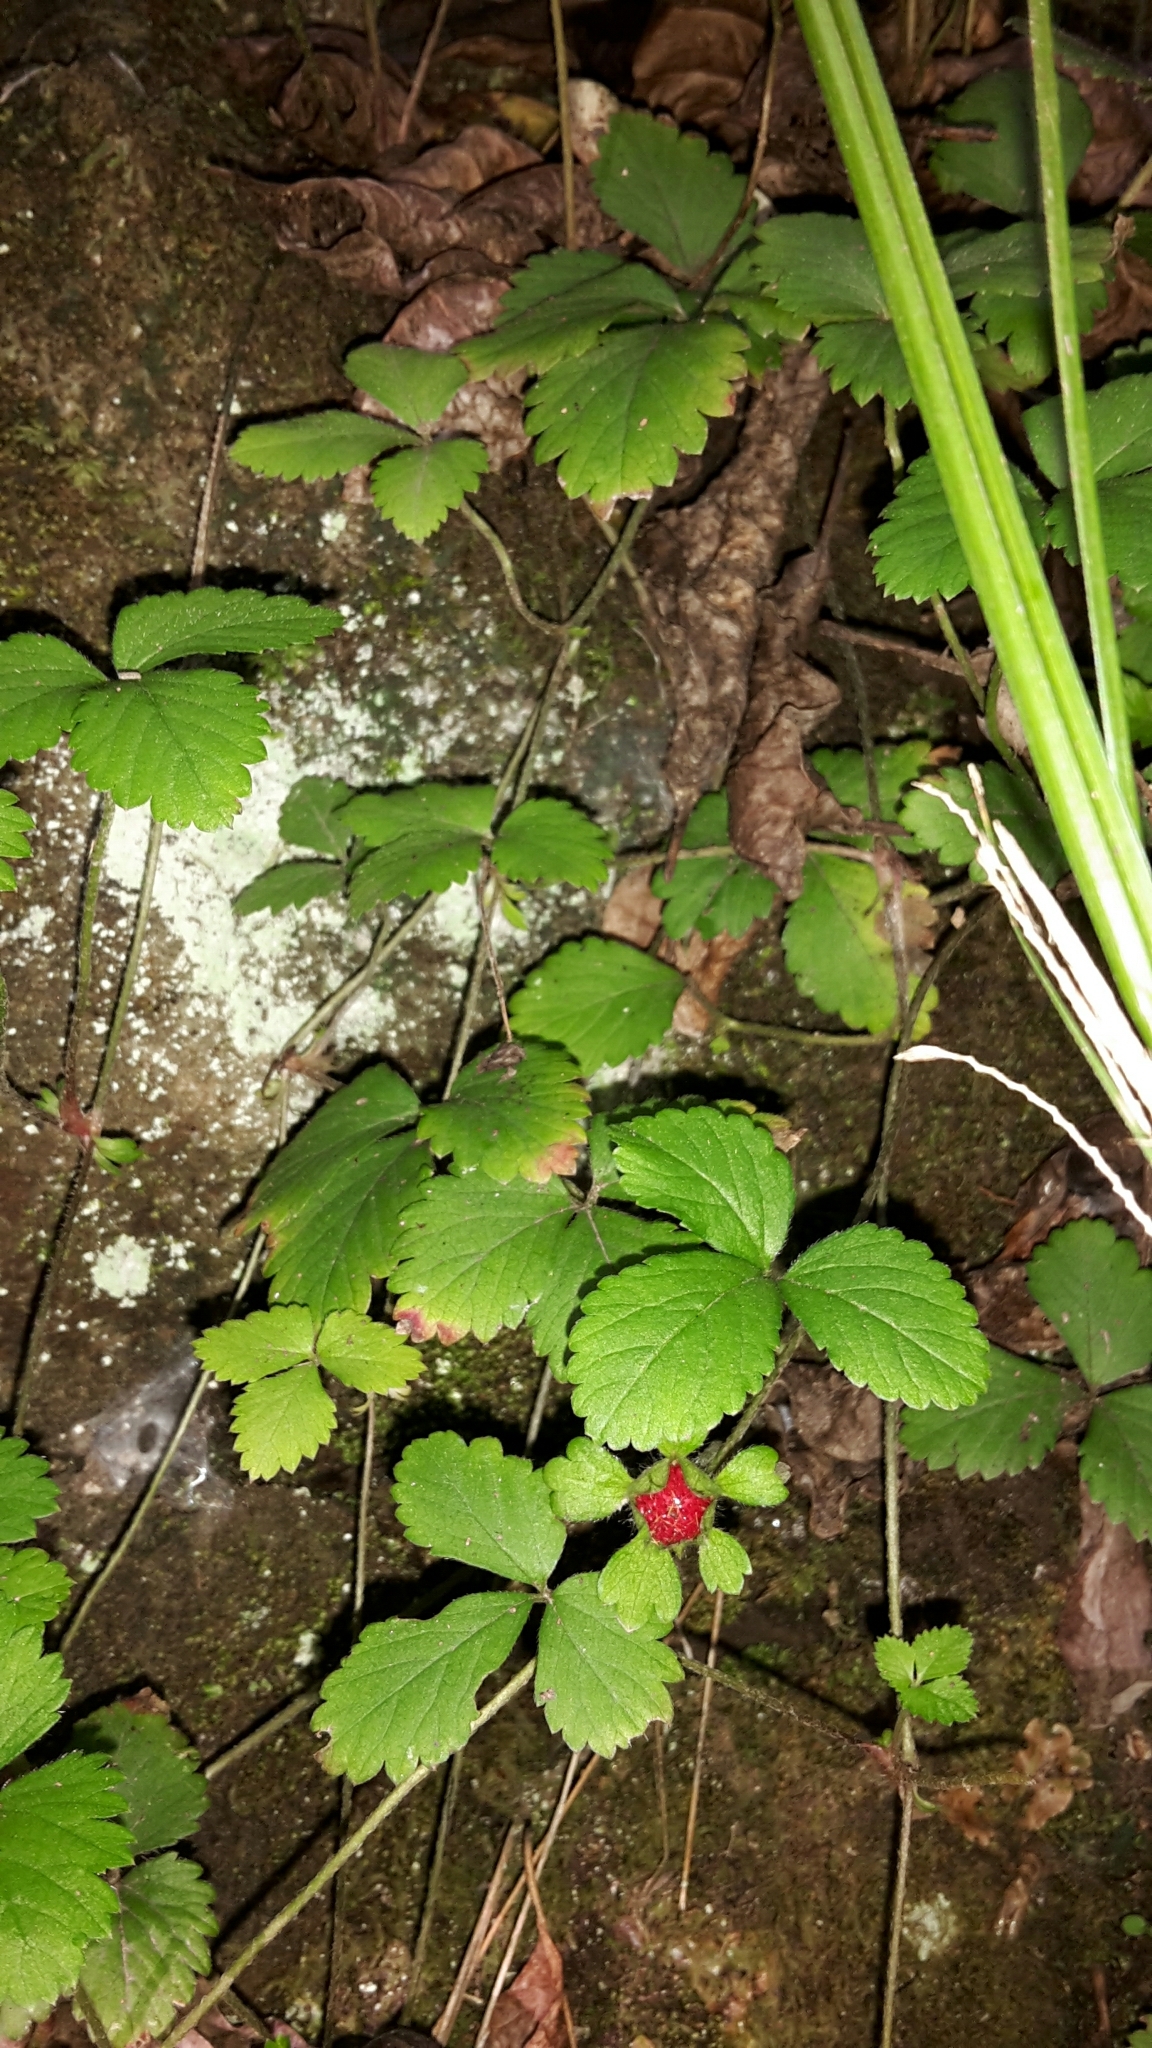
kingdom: Plantae
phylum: Tracheophyta
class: Magnoliopsida
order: Rosales
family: Rosaceae
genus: Potentilla
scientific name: Potentilla indica
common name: Yellow-flowered strawberry
